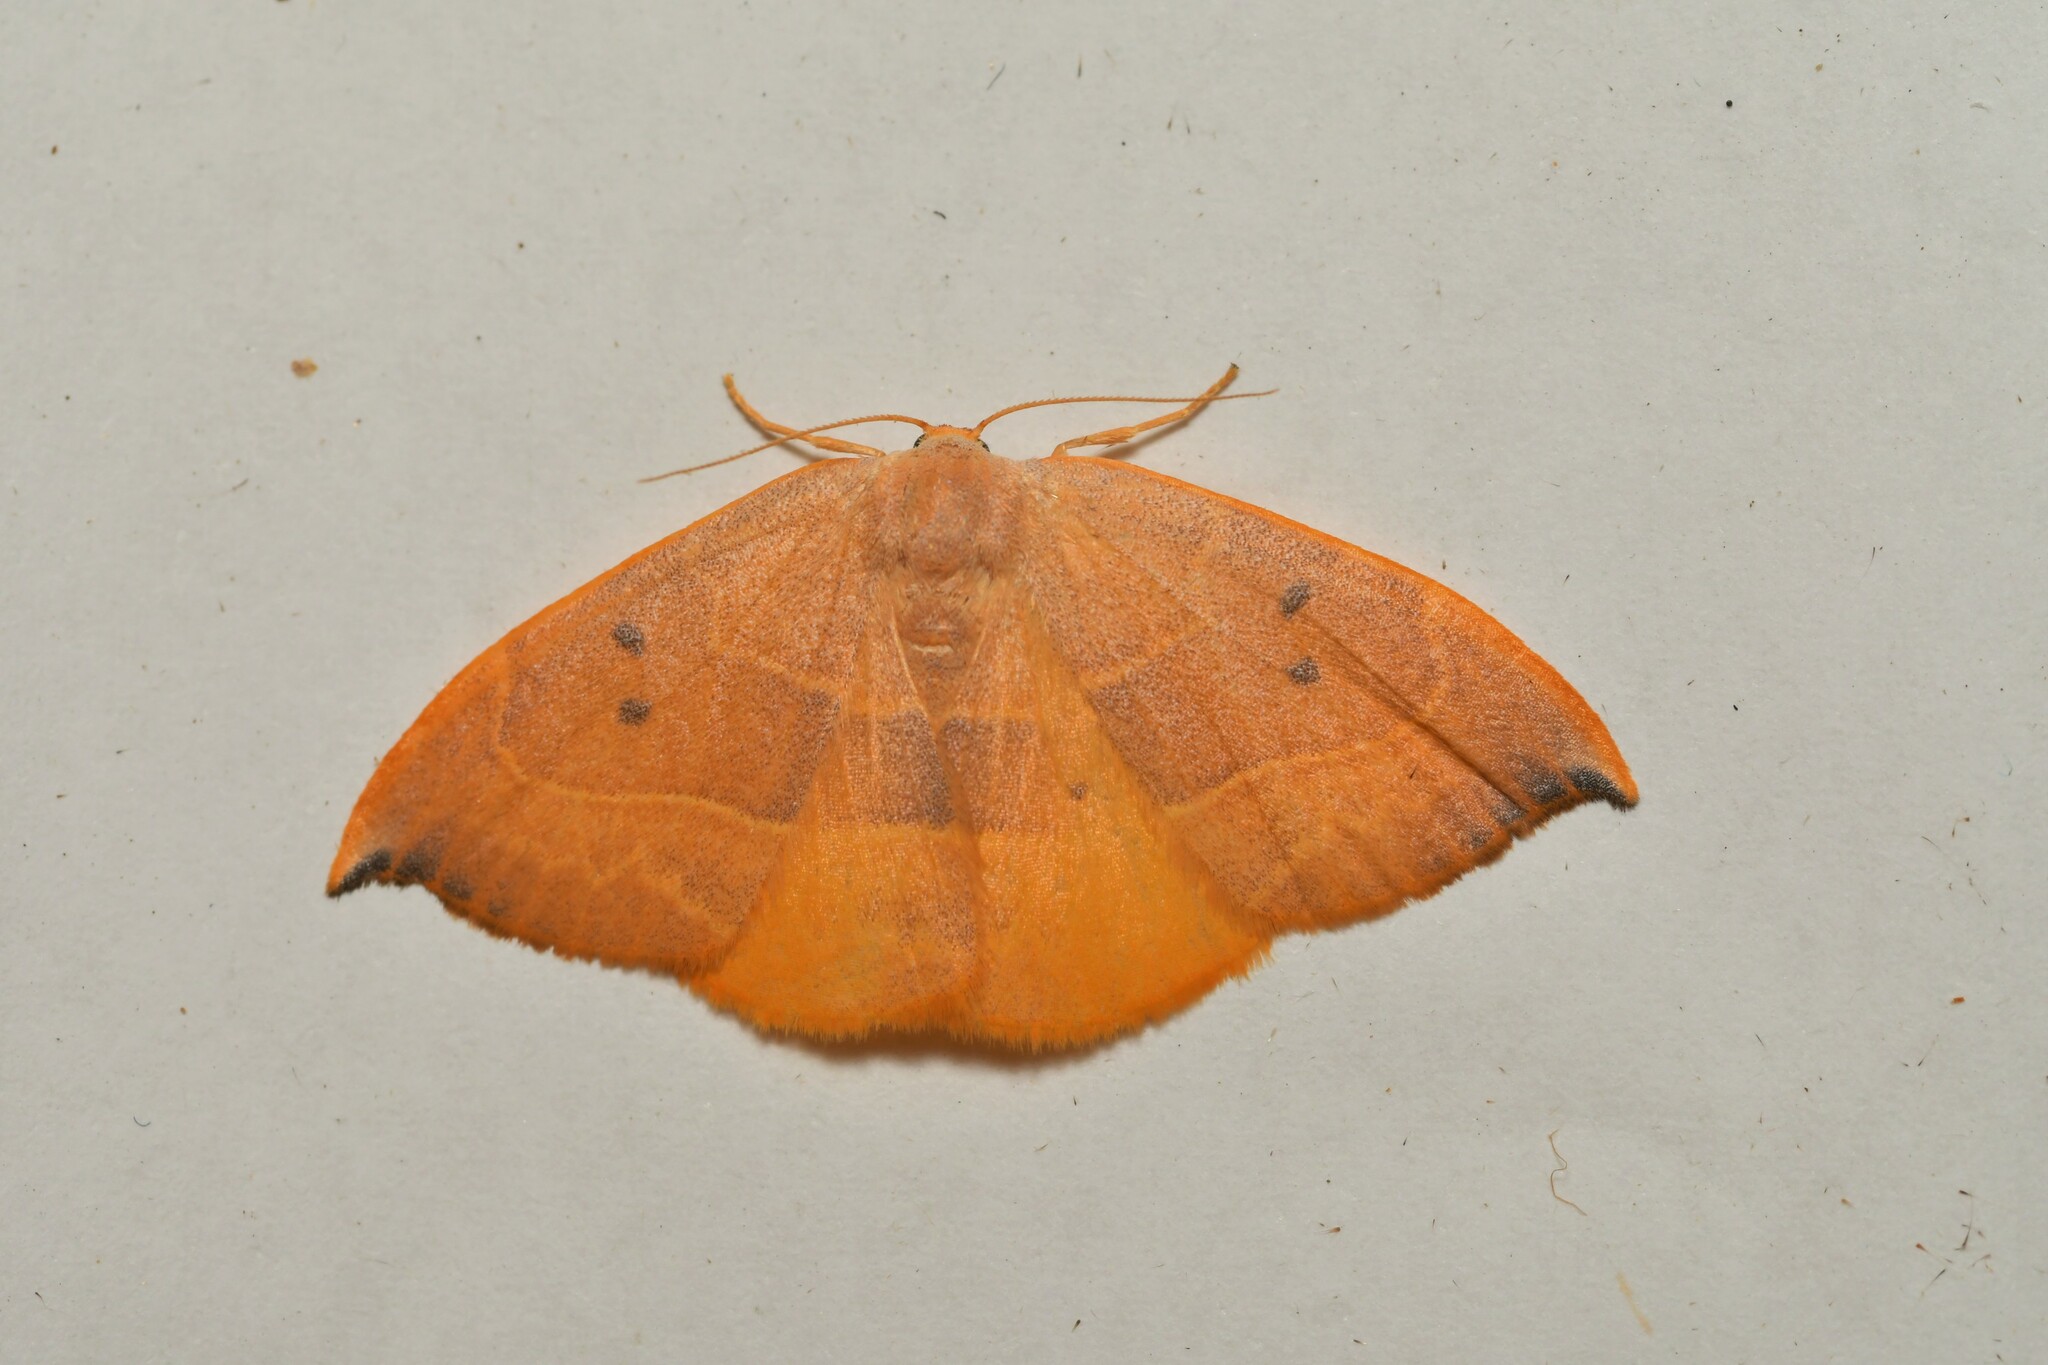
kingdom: Animalia
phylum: Arthropoda
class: Insecta
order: Lepidoptera
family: Drepanidae
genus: Watsonalla
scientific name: Watsonalla uncinula
